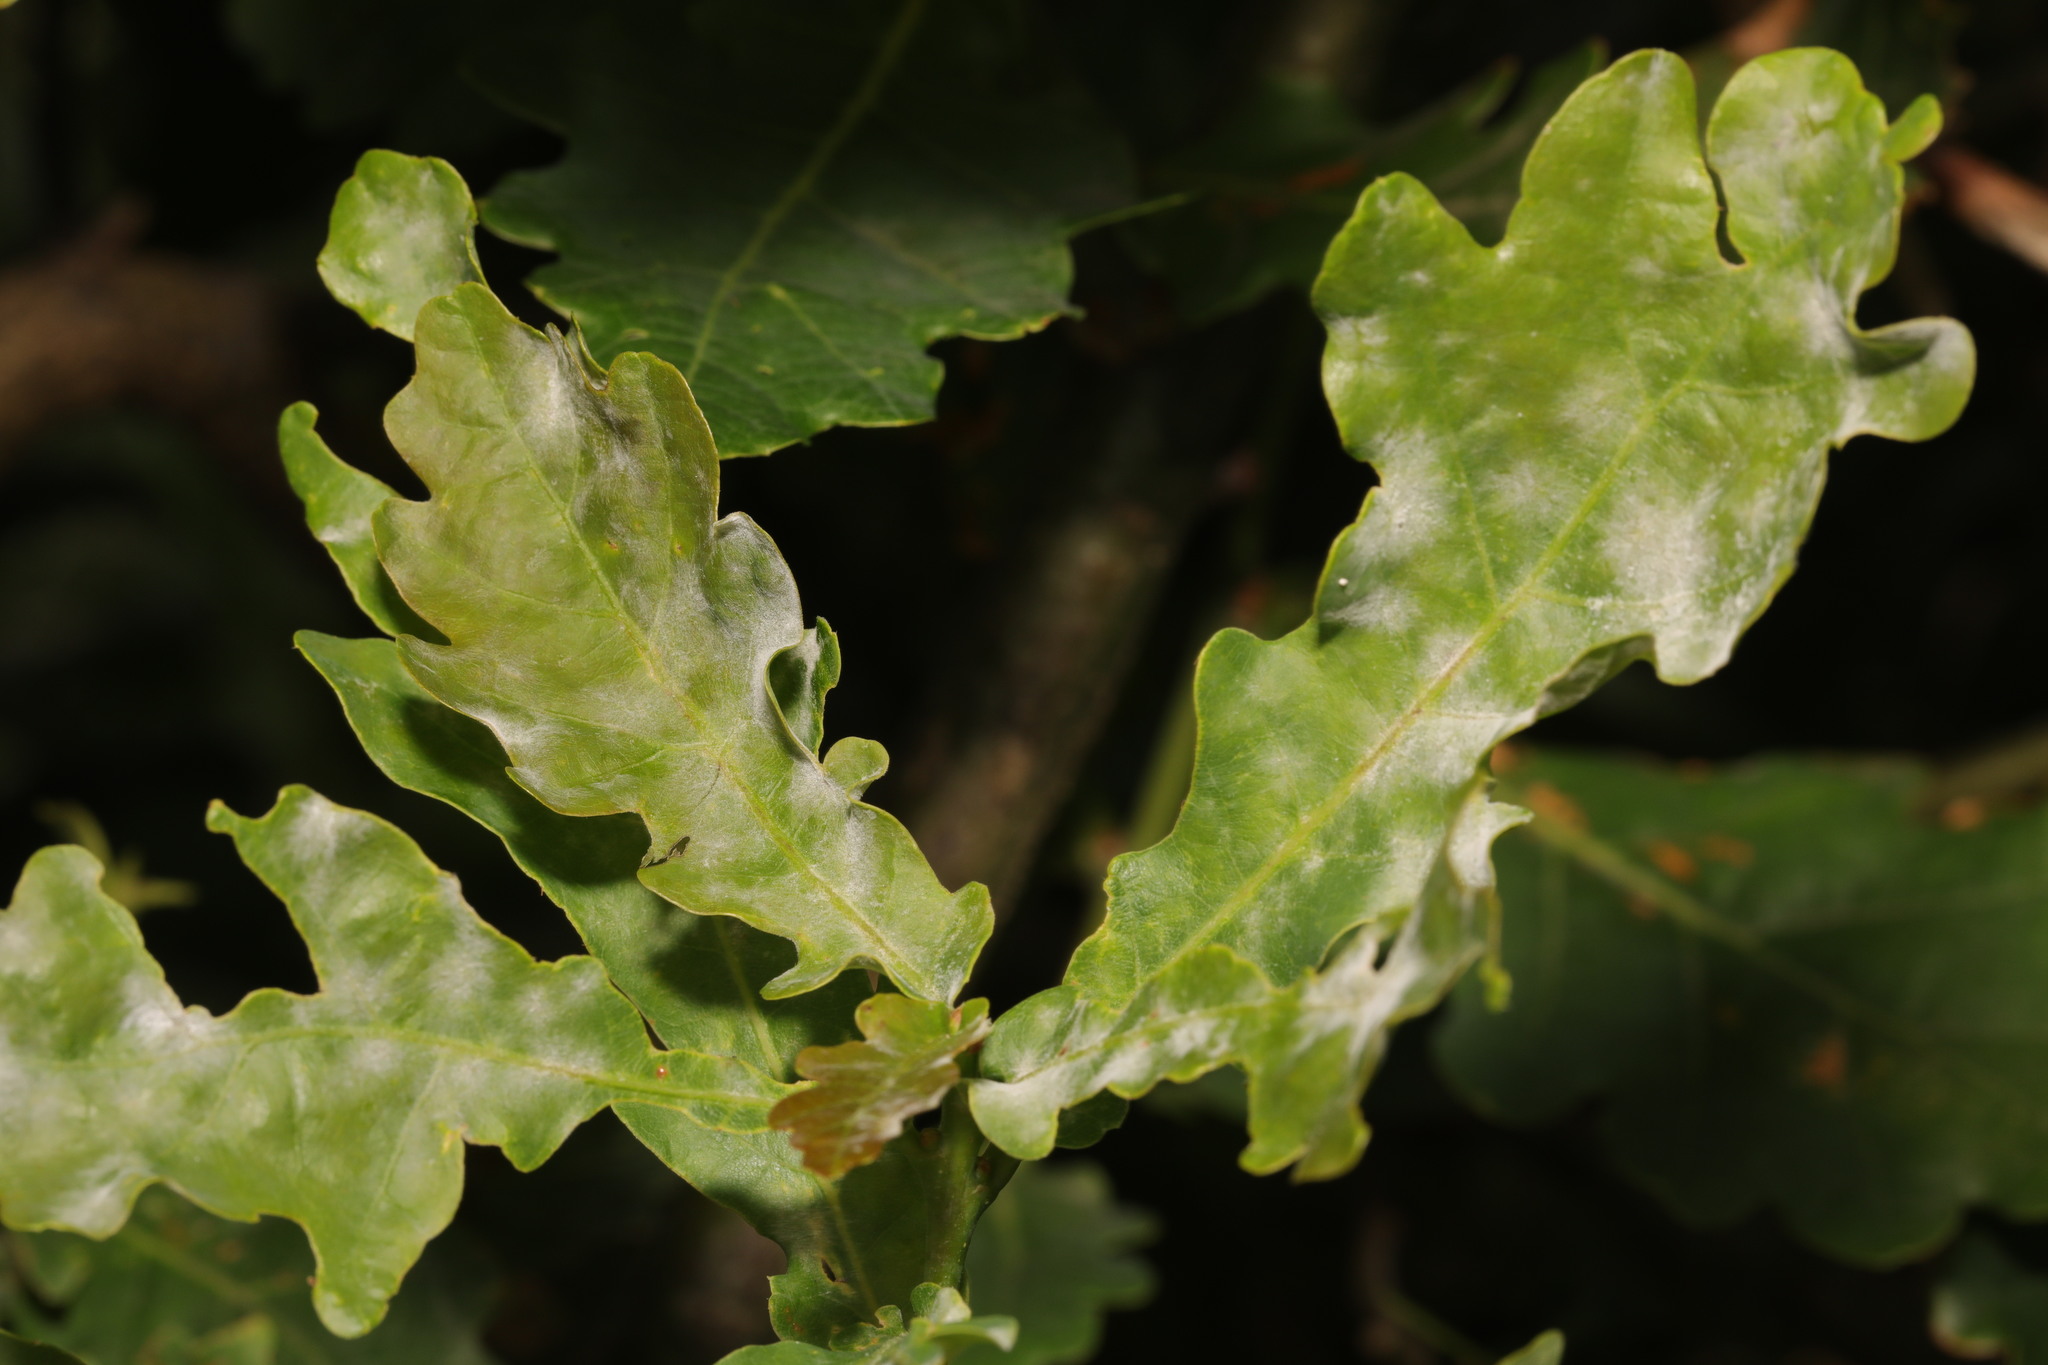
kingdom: Fungi
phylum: Ascomycota
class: Leotiomycetes
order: Helotiales
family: Erysiphaceae
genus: Erysiphe
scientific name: Erysiphe alphitoides
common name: Oak mildew
